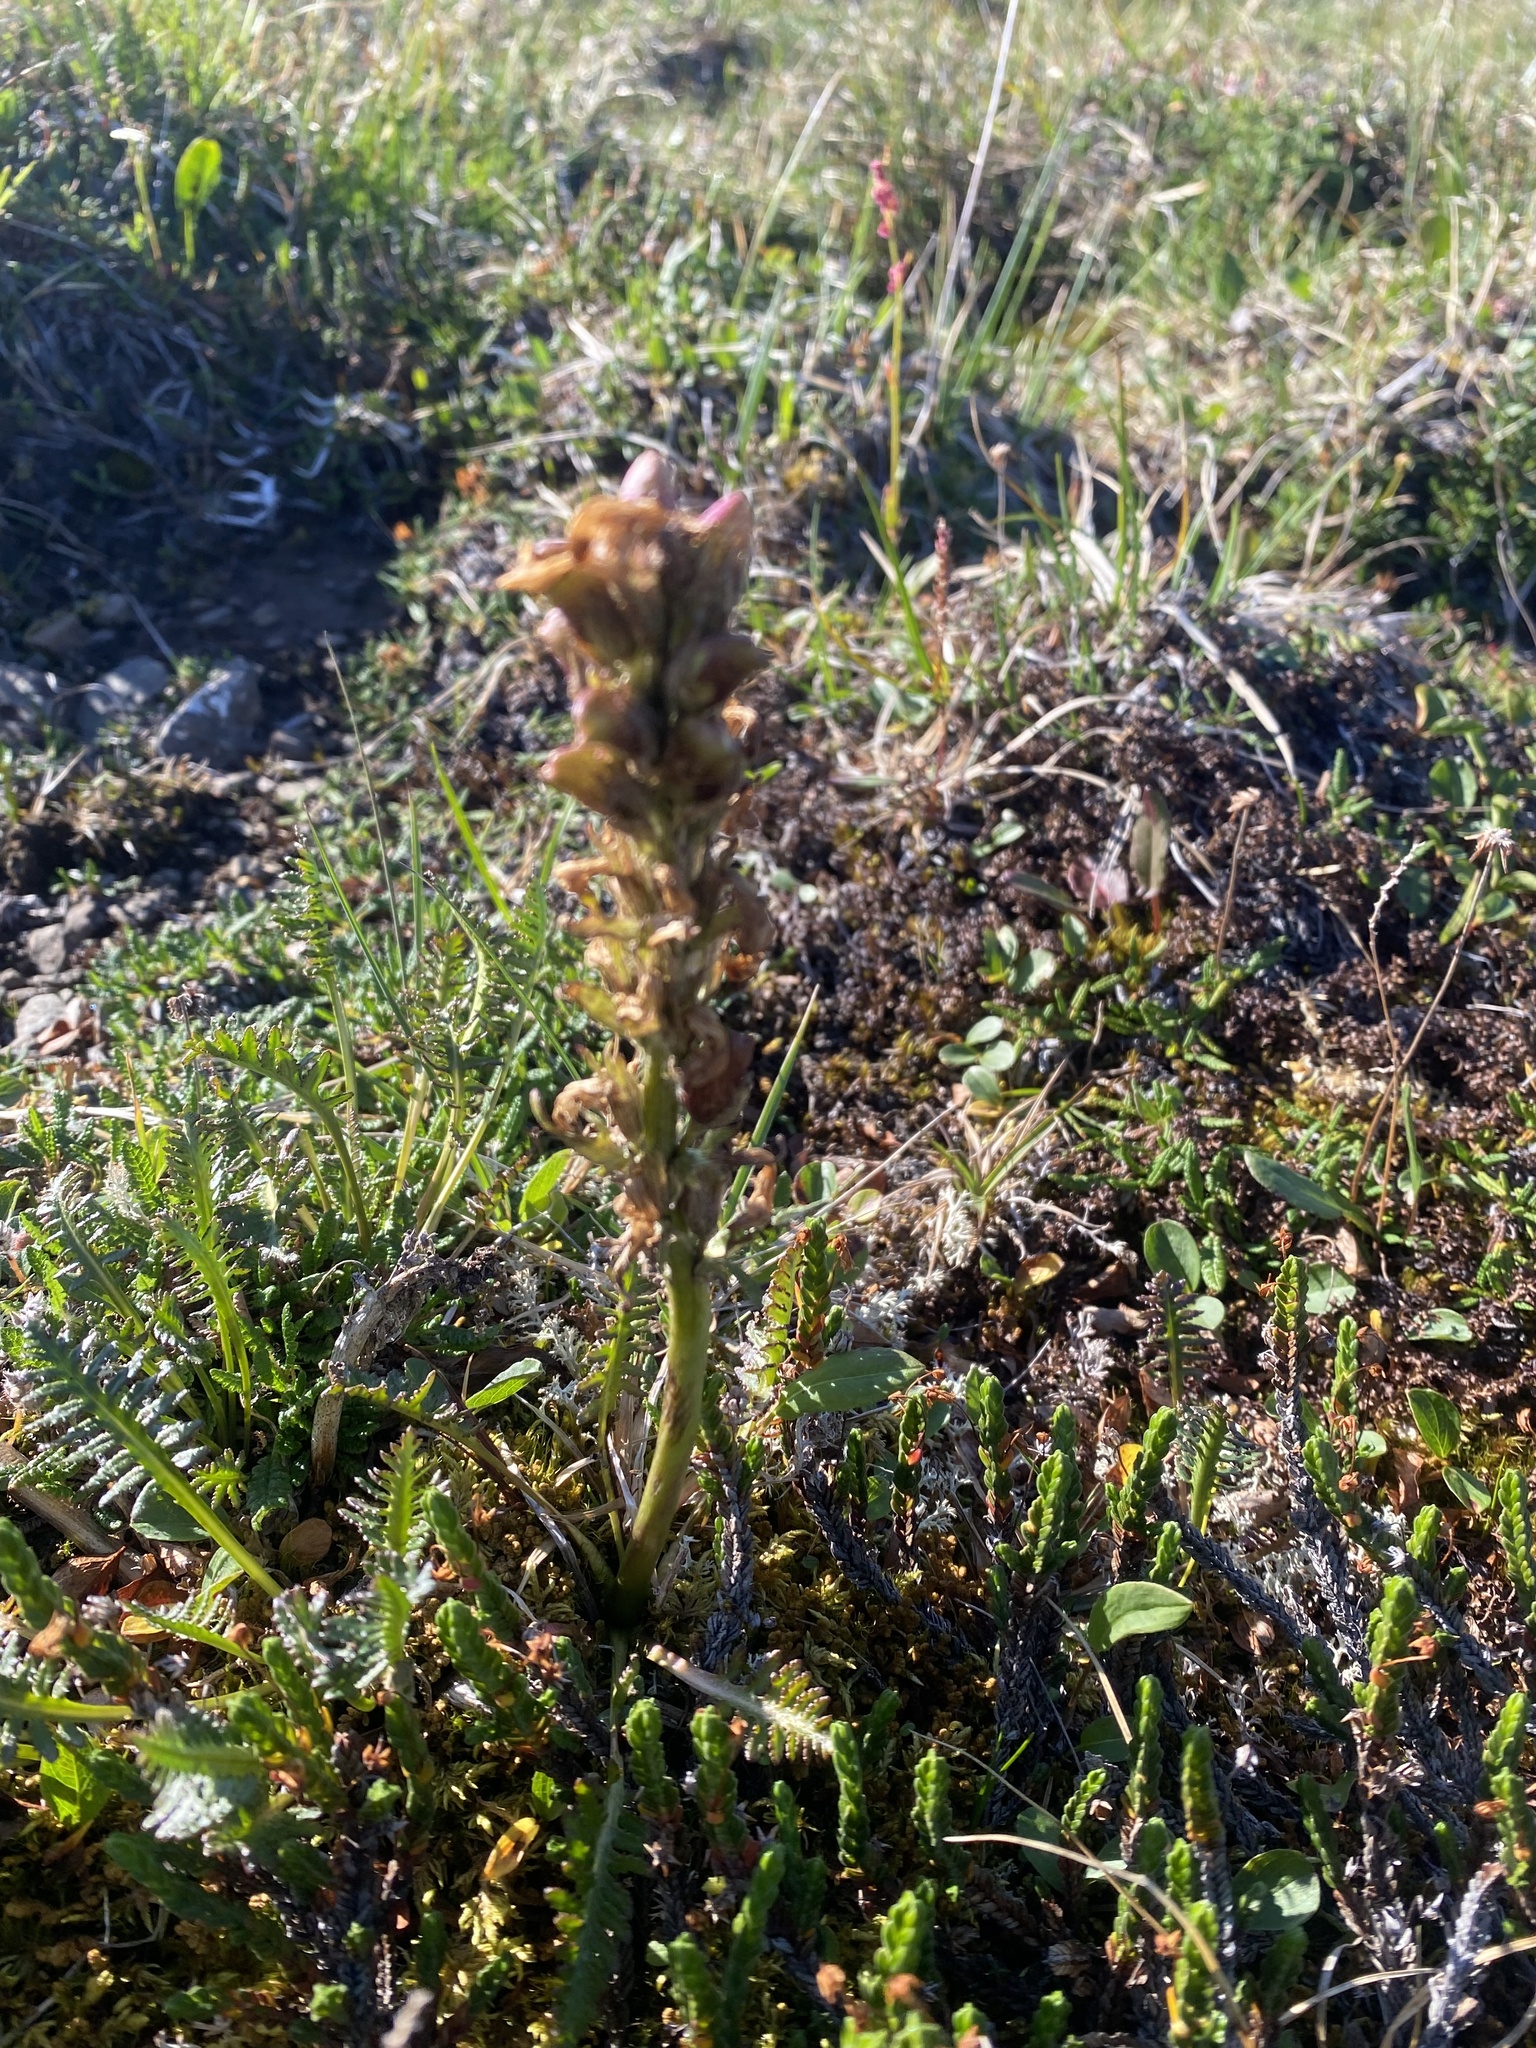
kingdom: Plantae
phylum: Tracheophyta
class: Magnoliopsida
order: Lamiales
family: Orobanchaceae
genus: Pedicularis
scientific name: Pedicularis oederi
